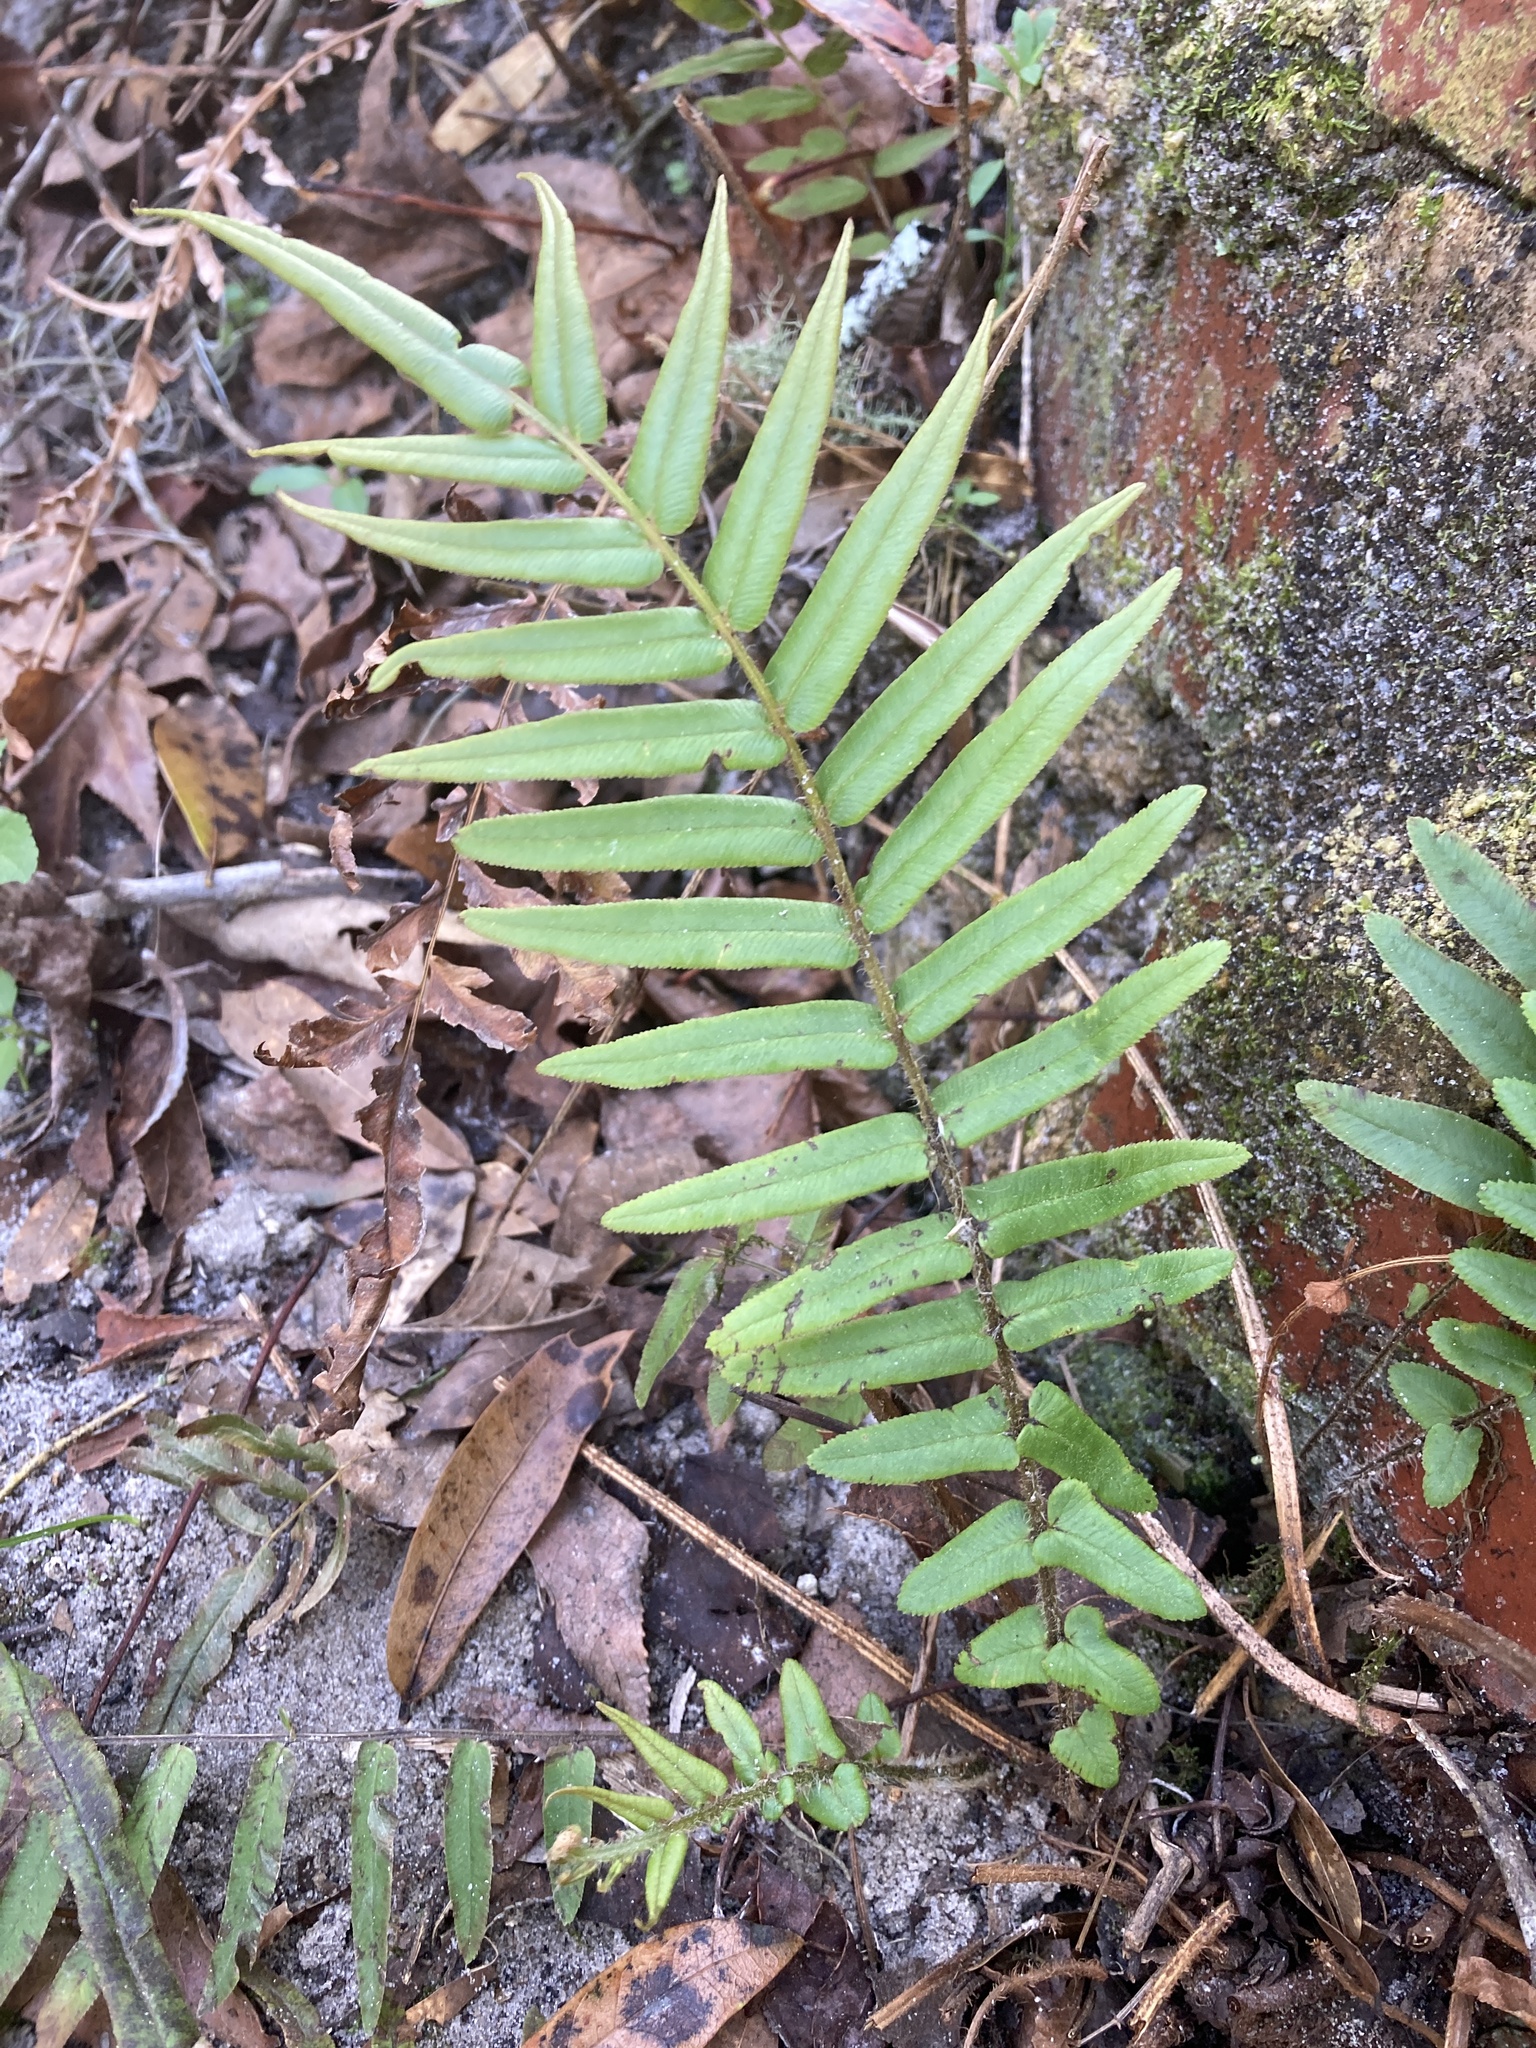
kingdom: Plantae
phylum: Tracheophyta
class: Polypodiopsida
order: Polypodiales
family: Pteridaceae
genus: Pteris
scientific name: Pteris vittata
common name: Ladder brake
